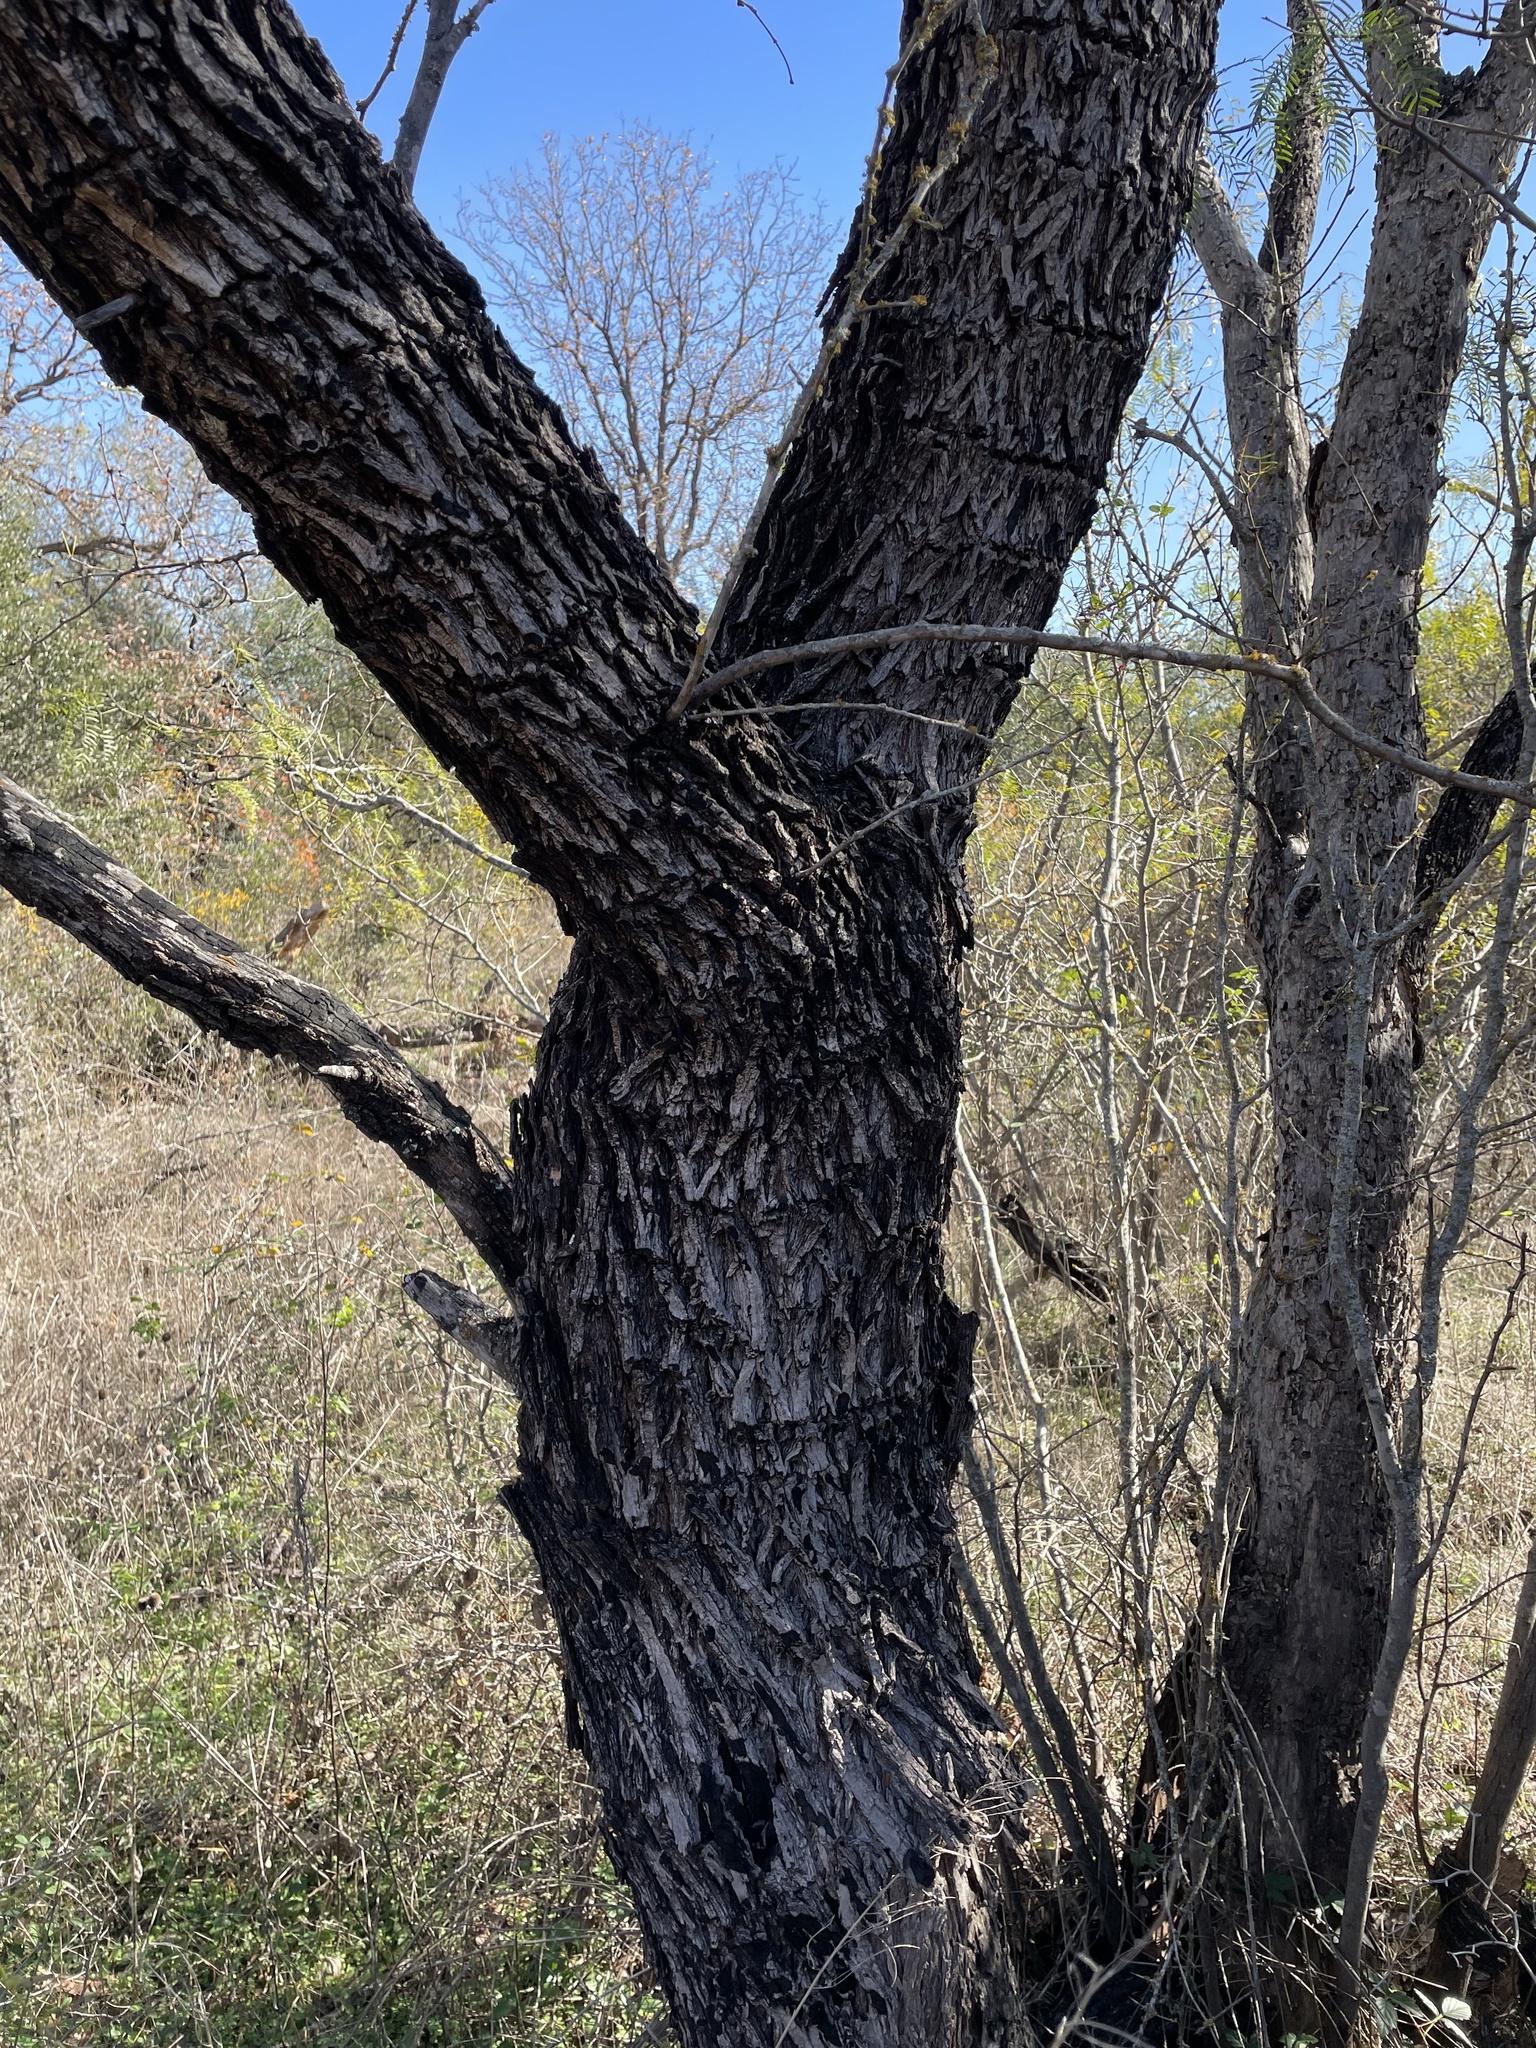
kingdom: Plantae
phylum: Tracheophyta
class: Magnoliopsida
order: Fabales
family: Fabaceae
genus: Prosopis
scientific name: Prosopis glandulosa
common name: Honey mesquite
